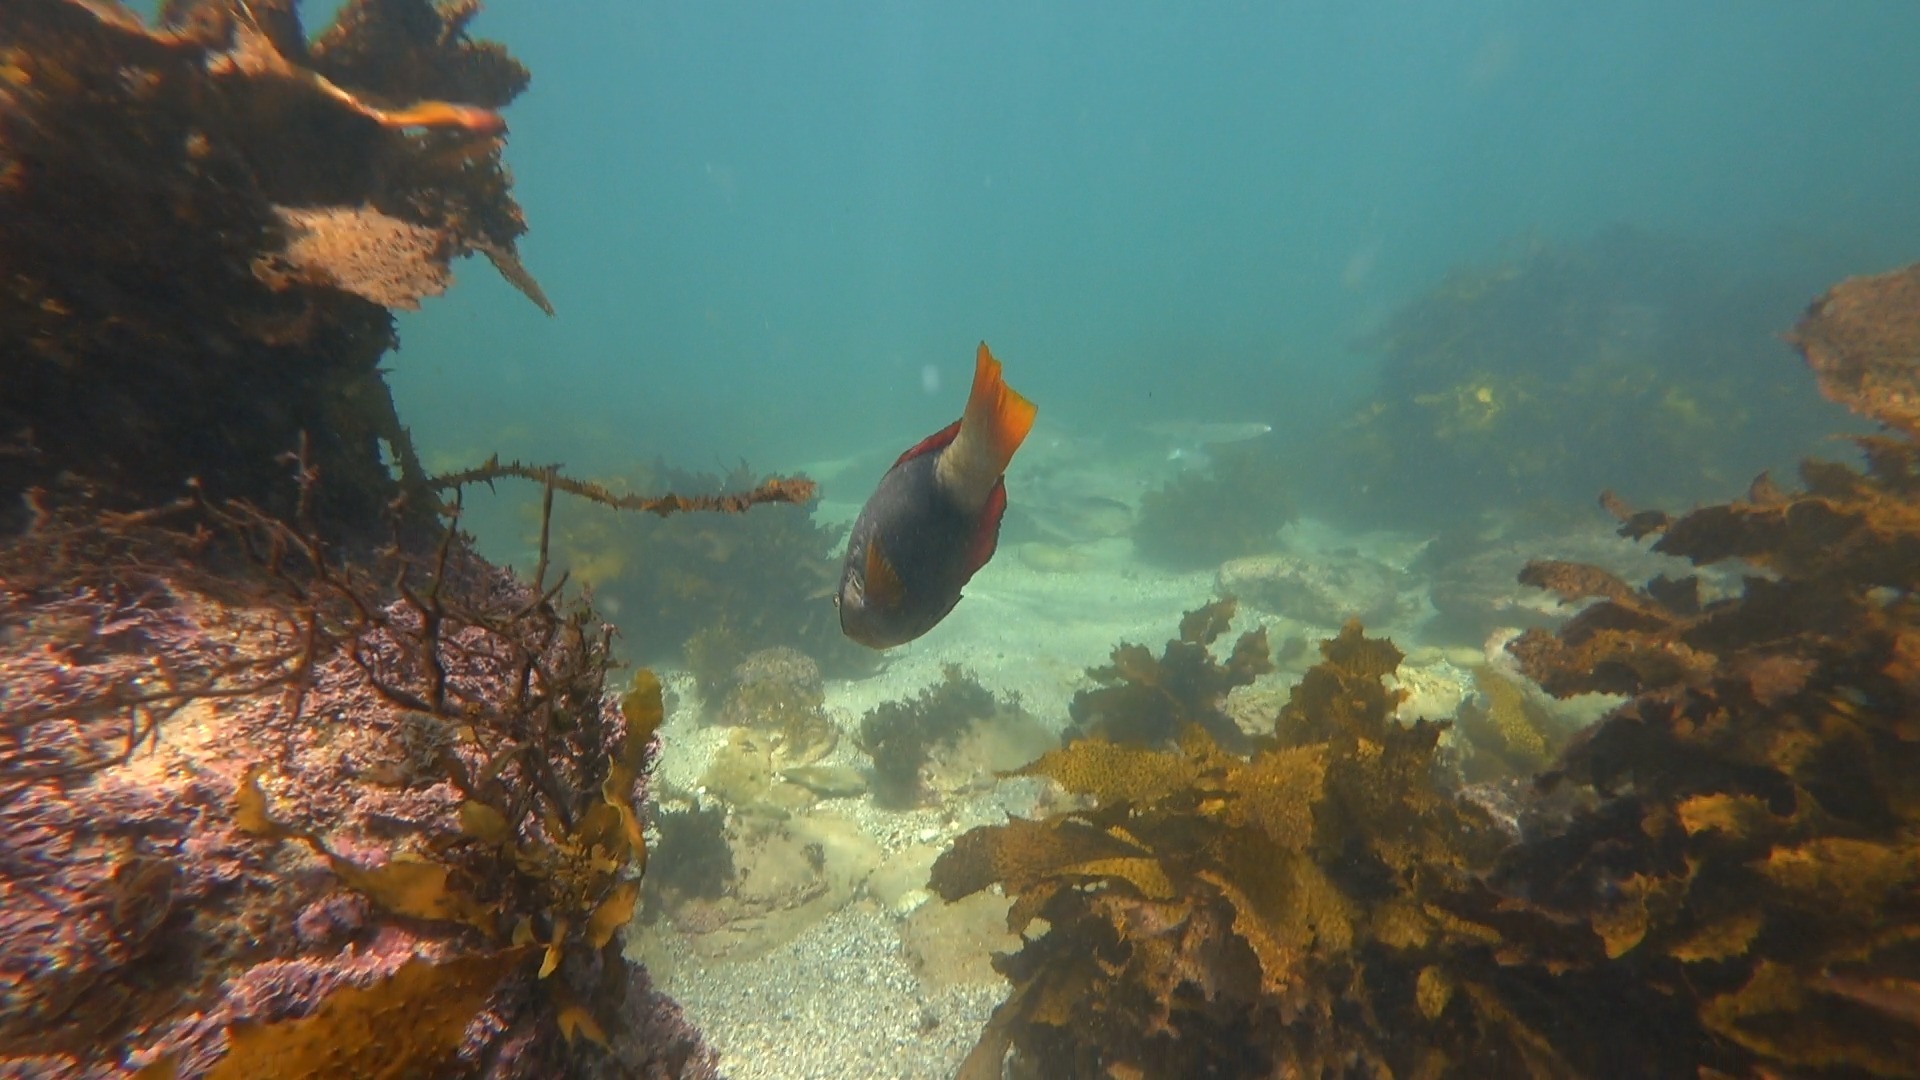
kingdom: Animalia
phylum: Chordata
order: Perciformes
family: Labridae
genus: Notolabrus
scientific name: Notolabrus gymnogenis
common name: Crimson banded wrasse
